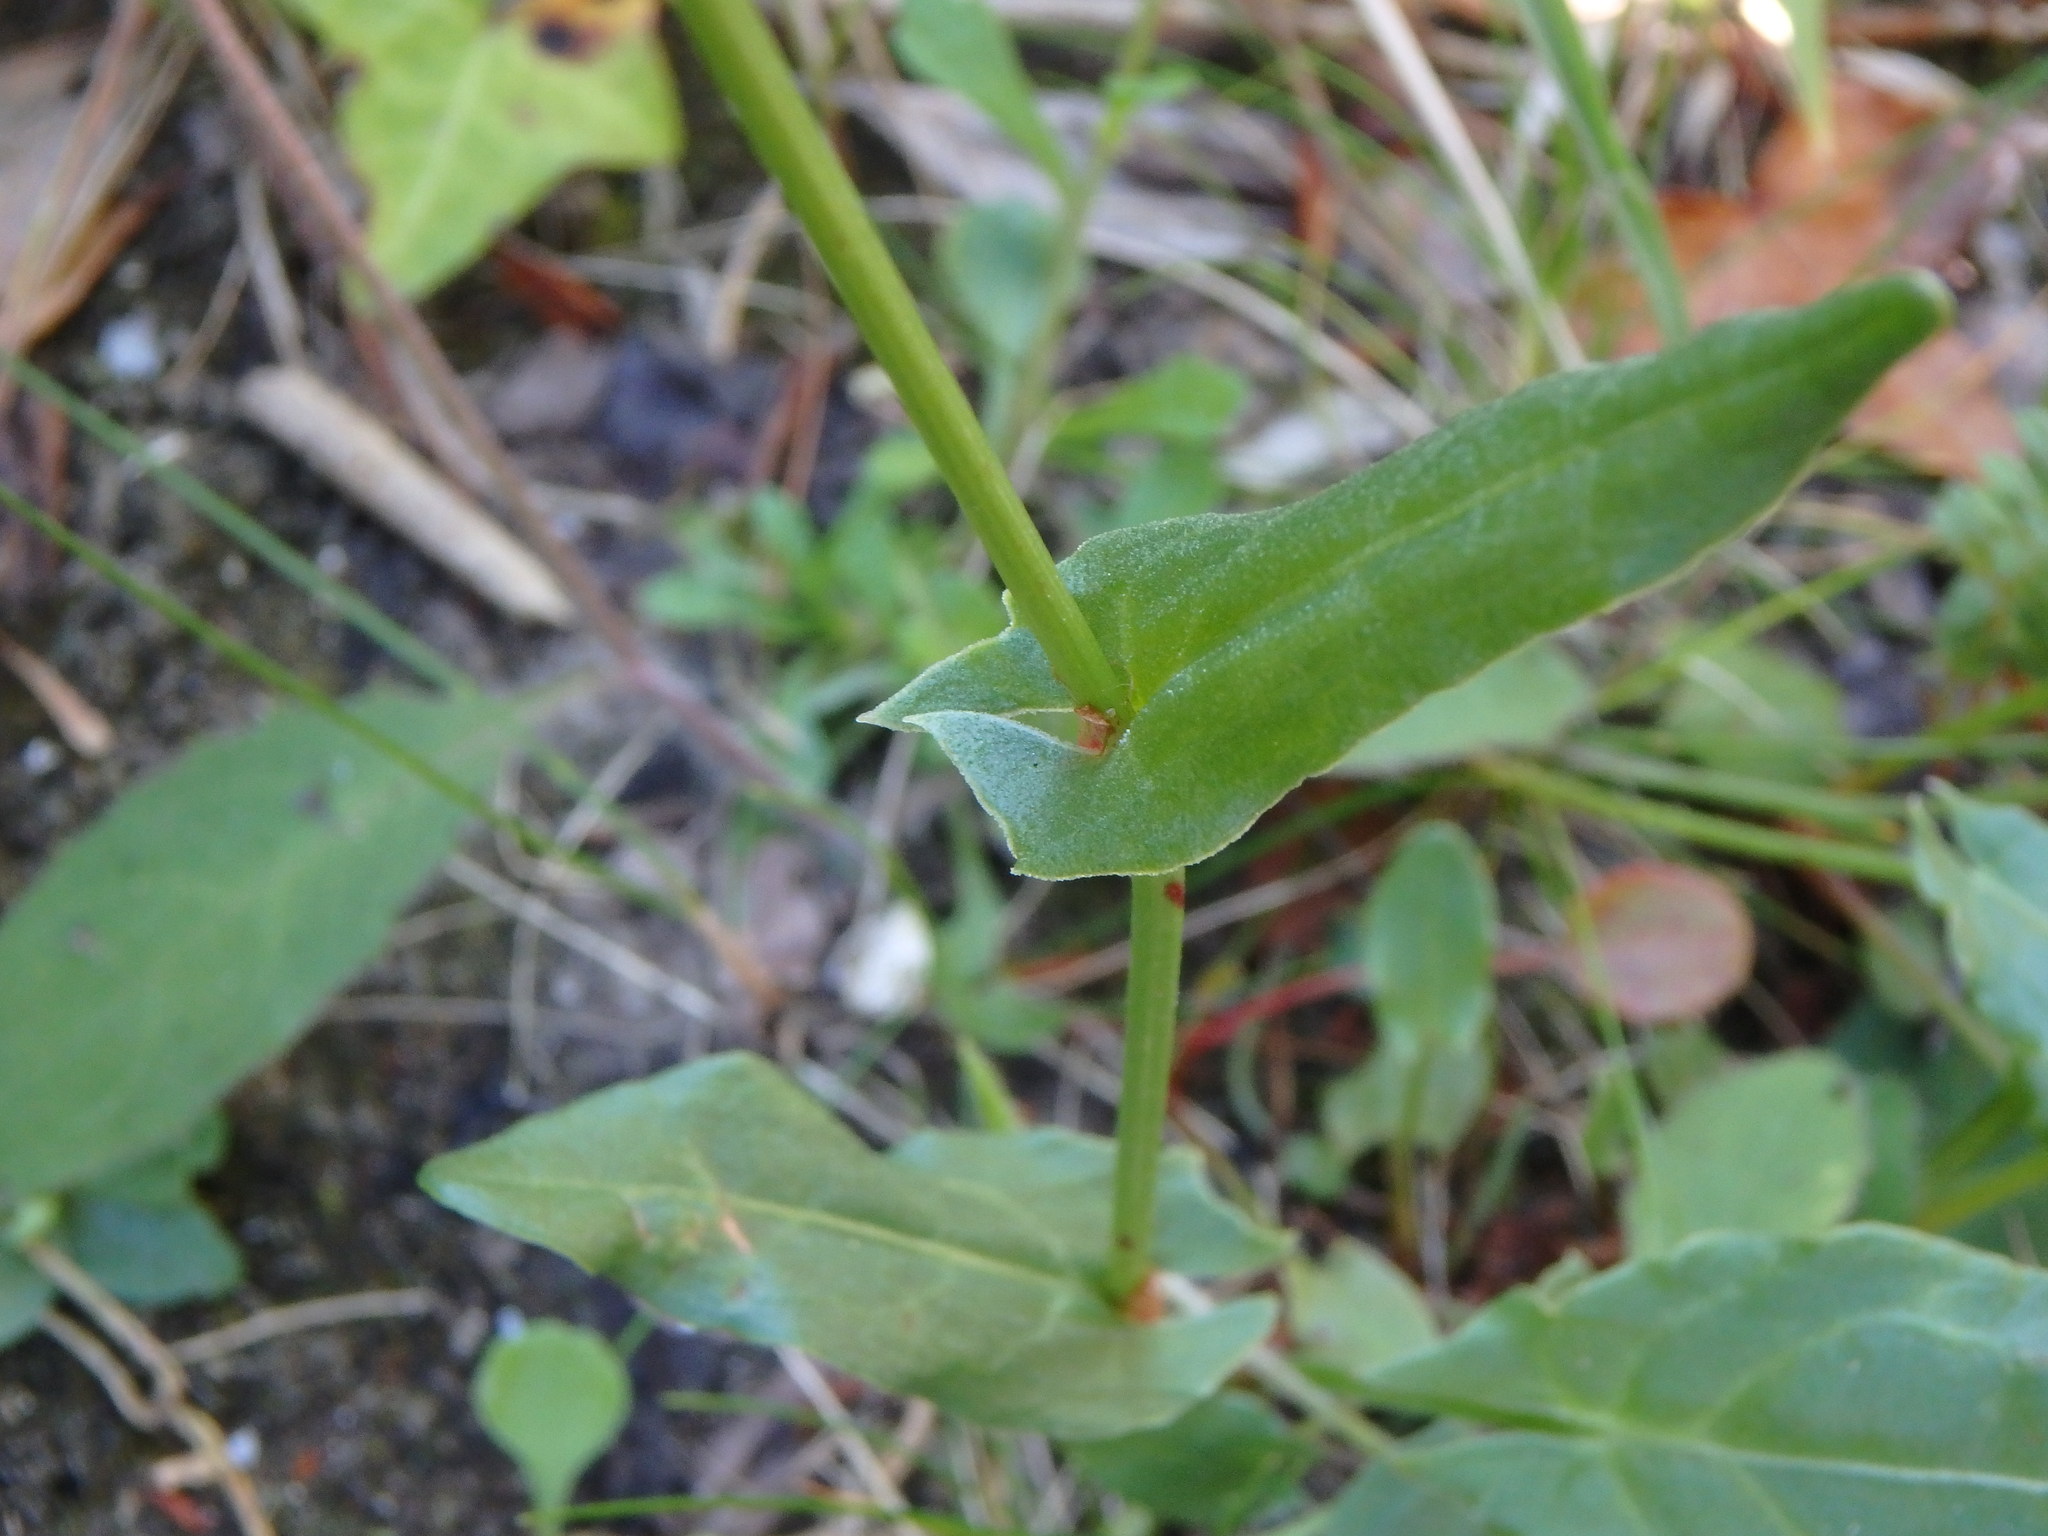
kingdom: Plantae
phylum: Tracheophyta
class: Magnoliopsida
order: Caryophyllales
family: Polygonaceae
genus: Rumex
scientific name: Rumex acetosa
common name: Garden sorrel
